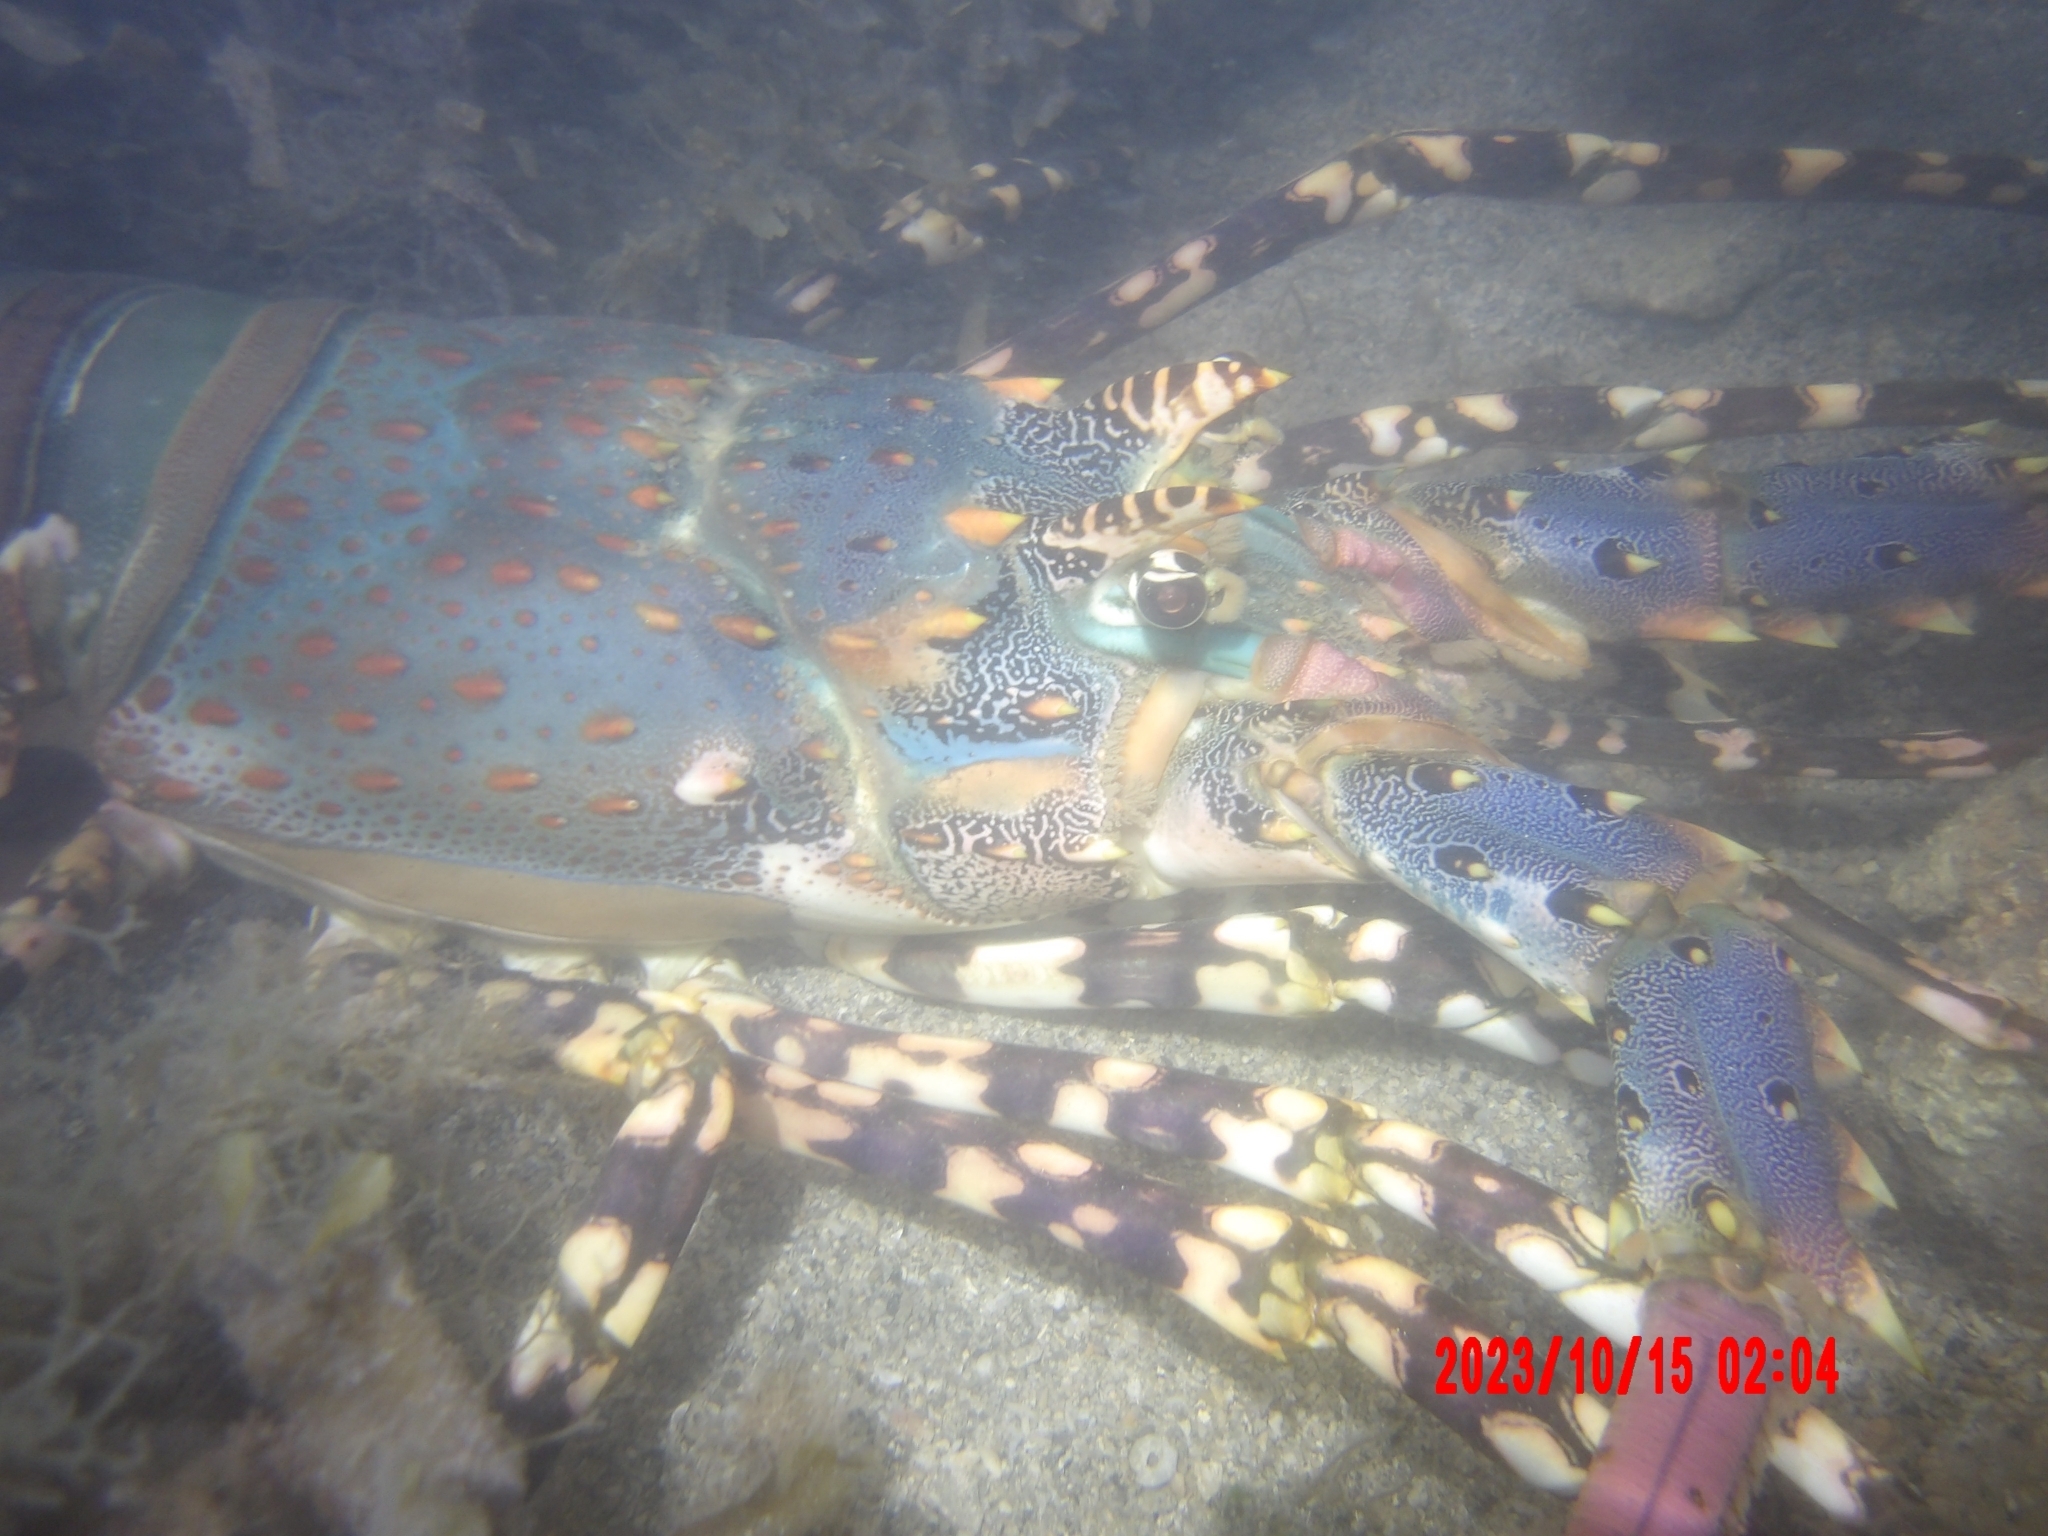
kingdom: Animalia
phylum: Arthropoda
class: Malacostraca
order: Decapoda
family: Palinuridae
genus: Panulirus
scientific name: Panulirus ornatus
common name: Ornate spiny lobster
